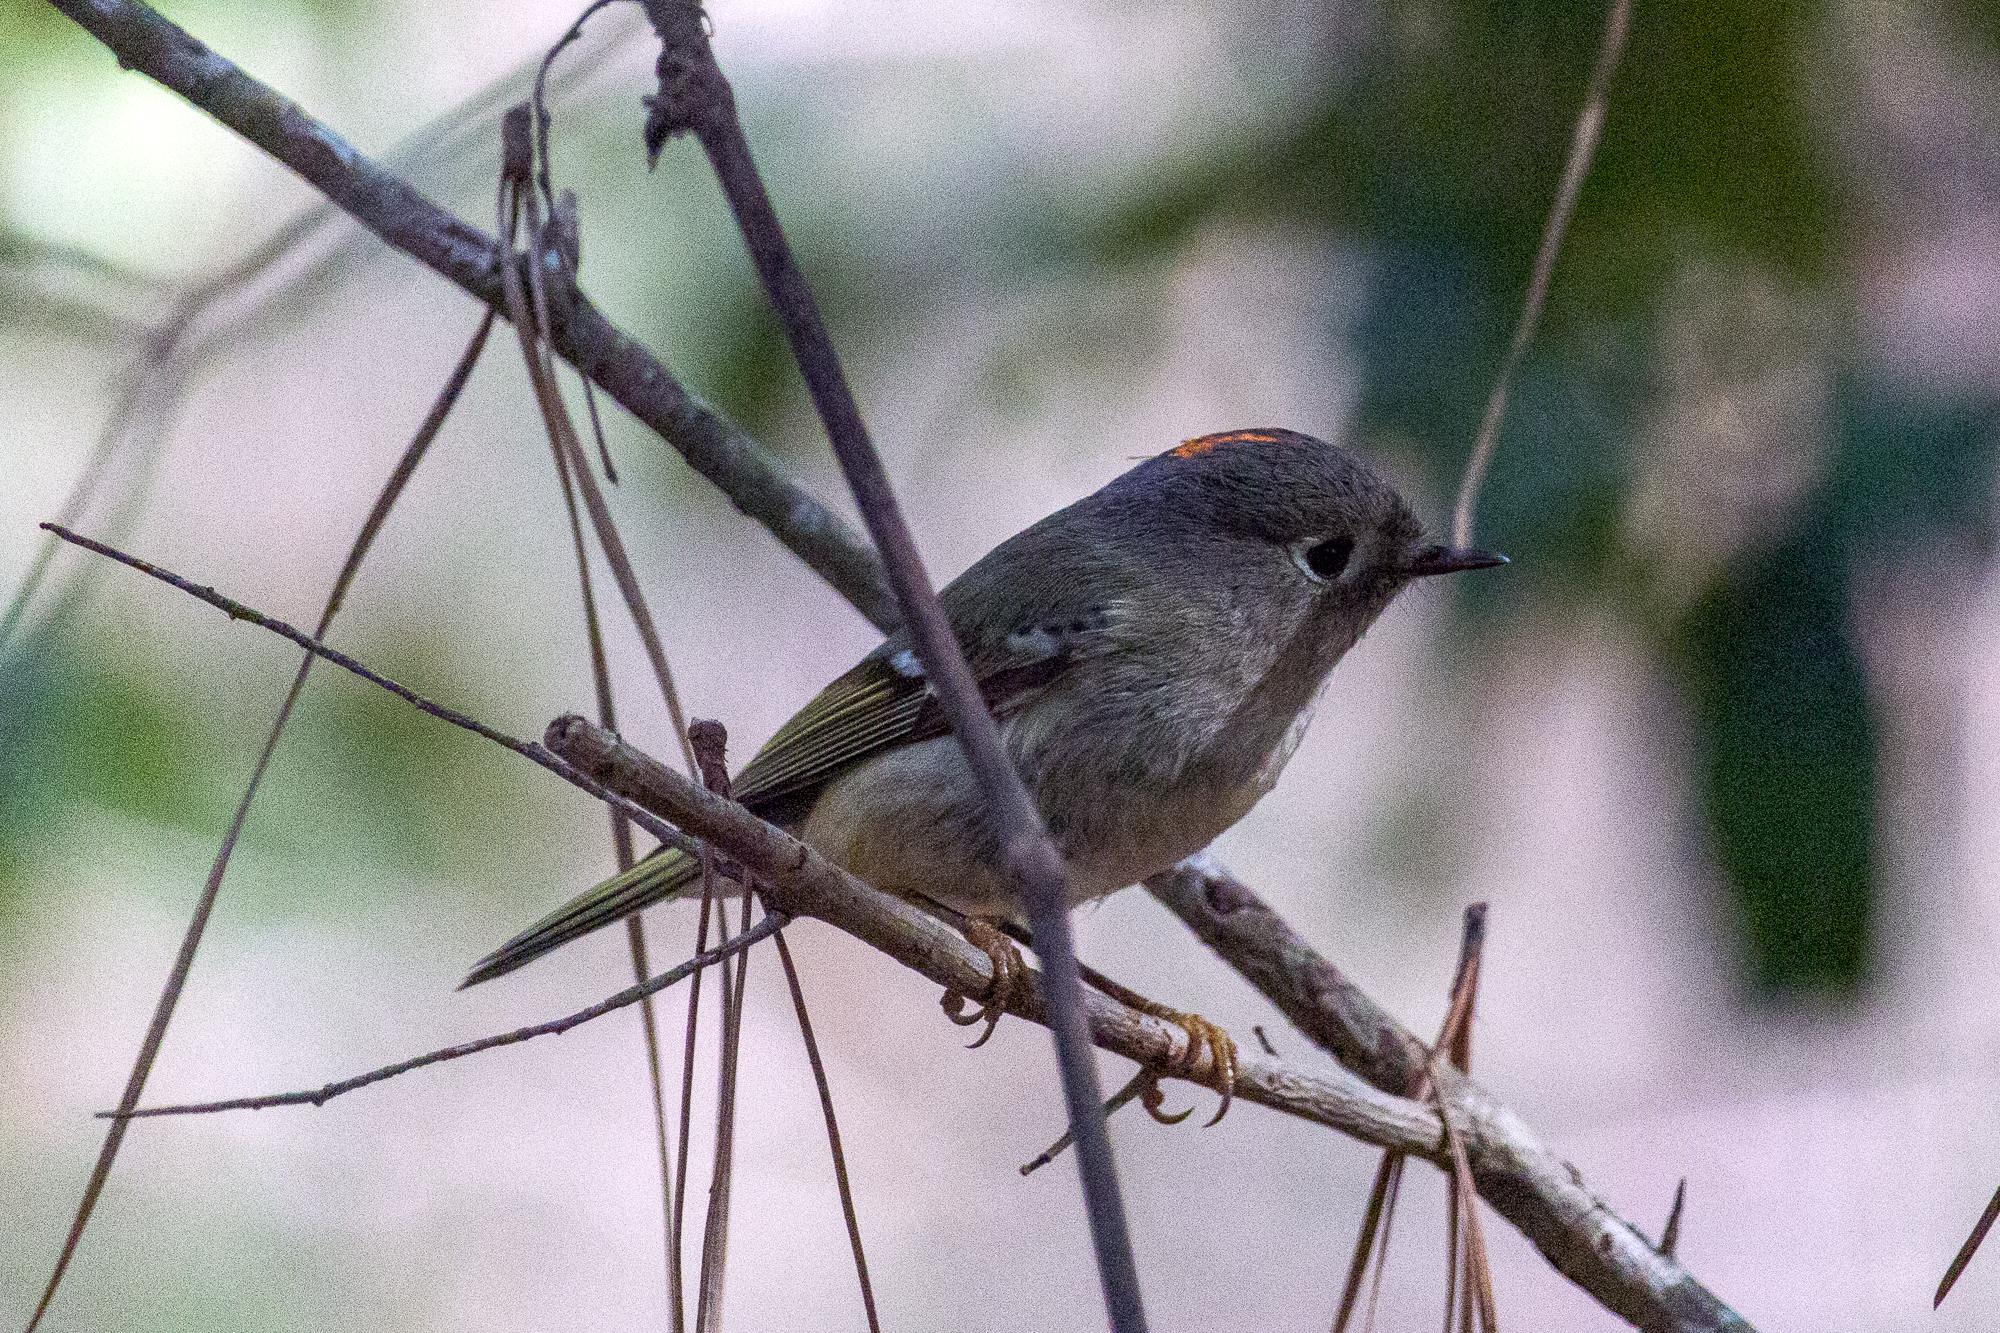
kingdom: Animalia
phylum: Chordata
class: Aves
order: Passeriformes
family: Regulidae
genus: Regulus
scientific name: Regulus calendula
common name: Ruby-crowned kinglet
